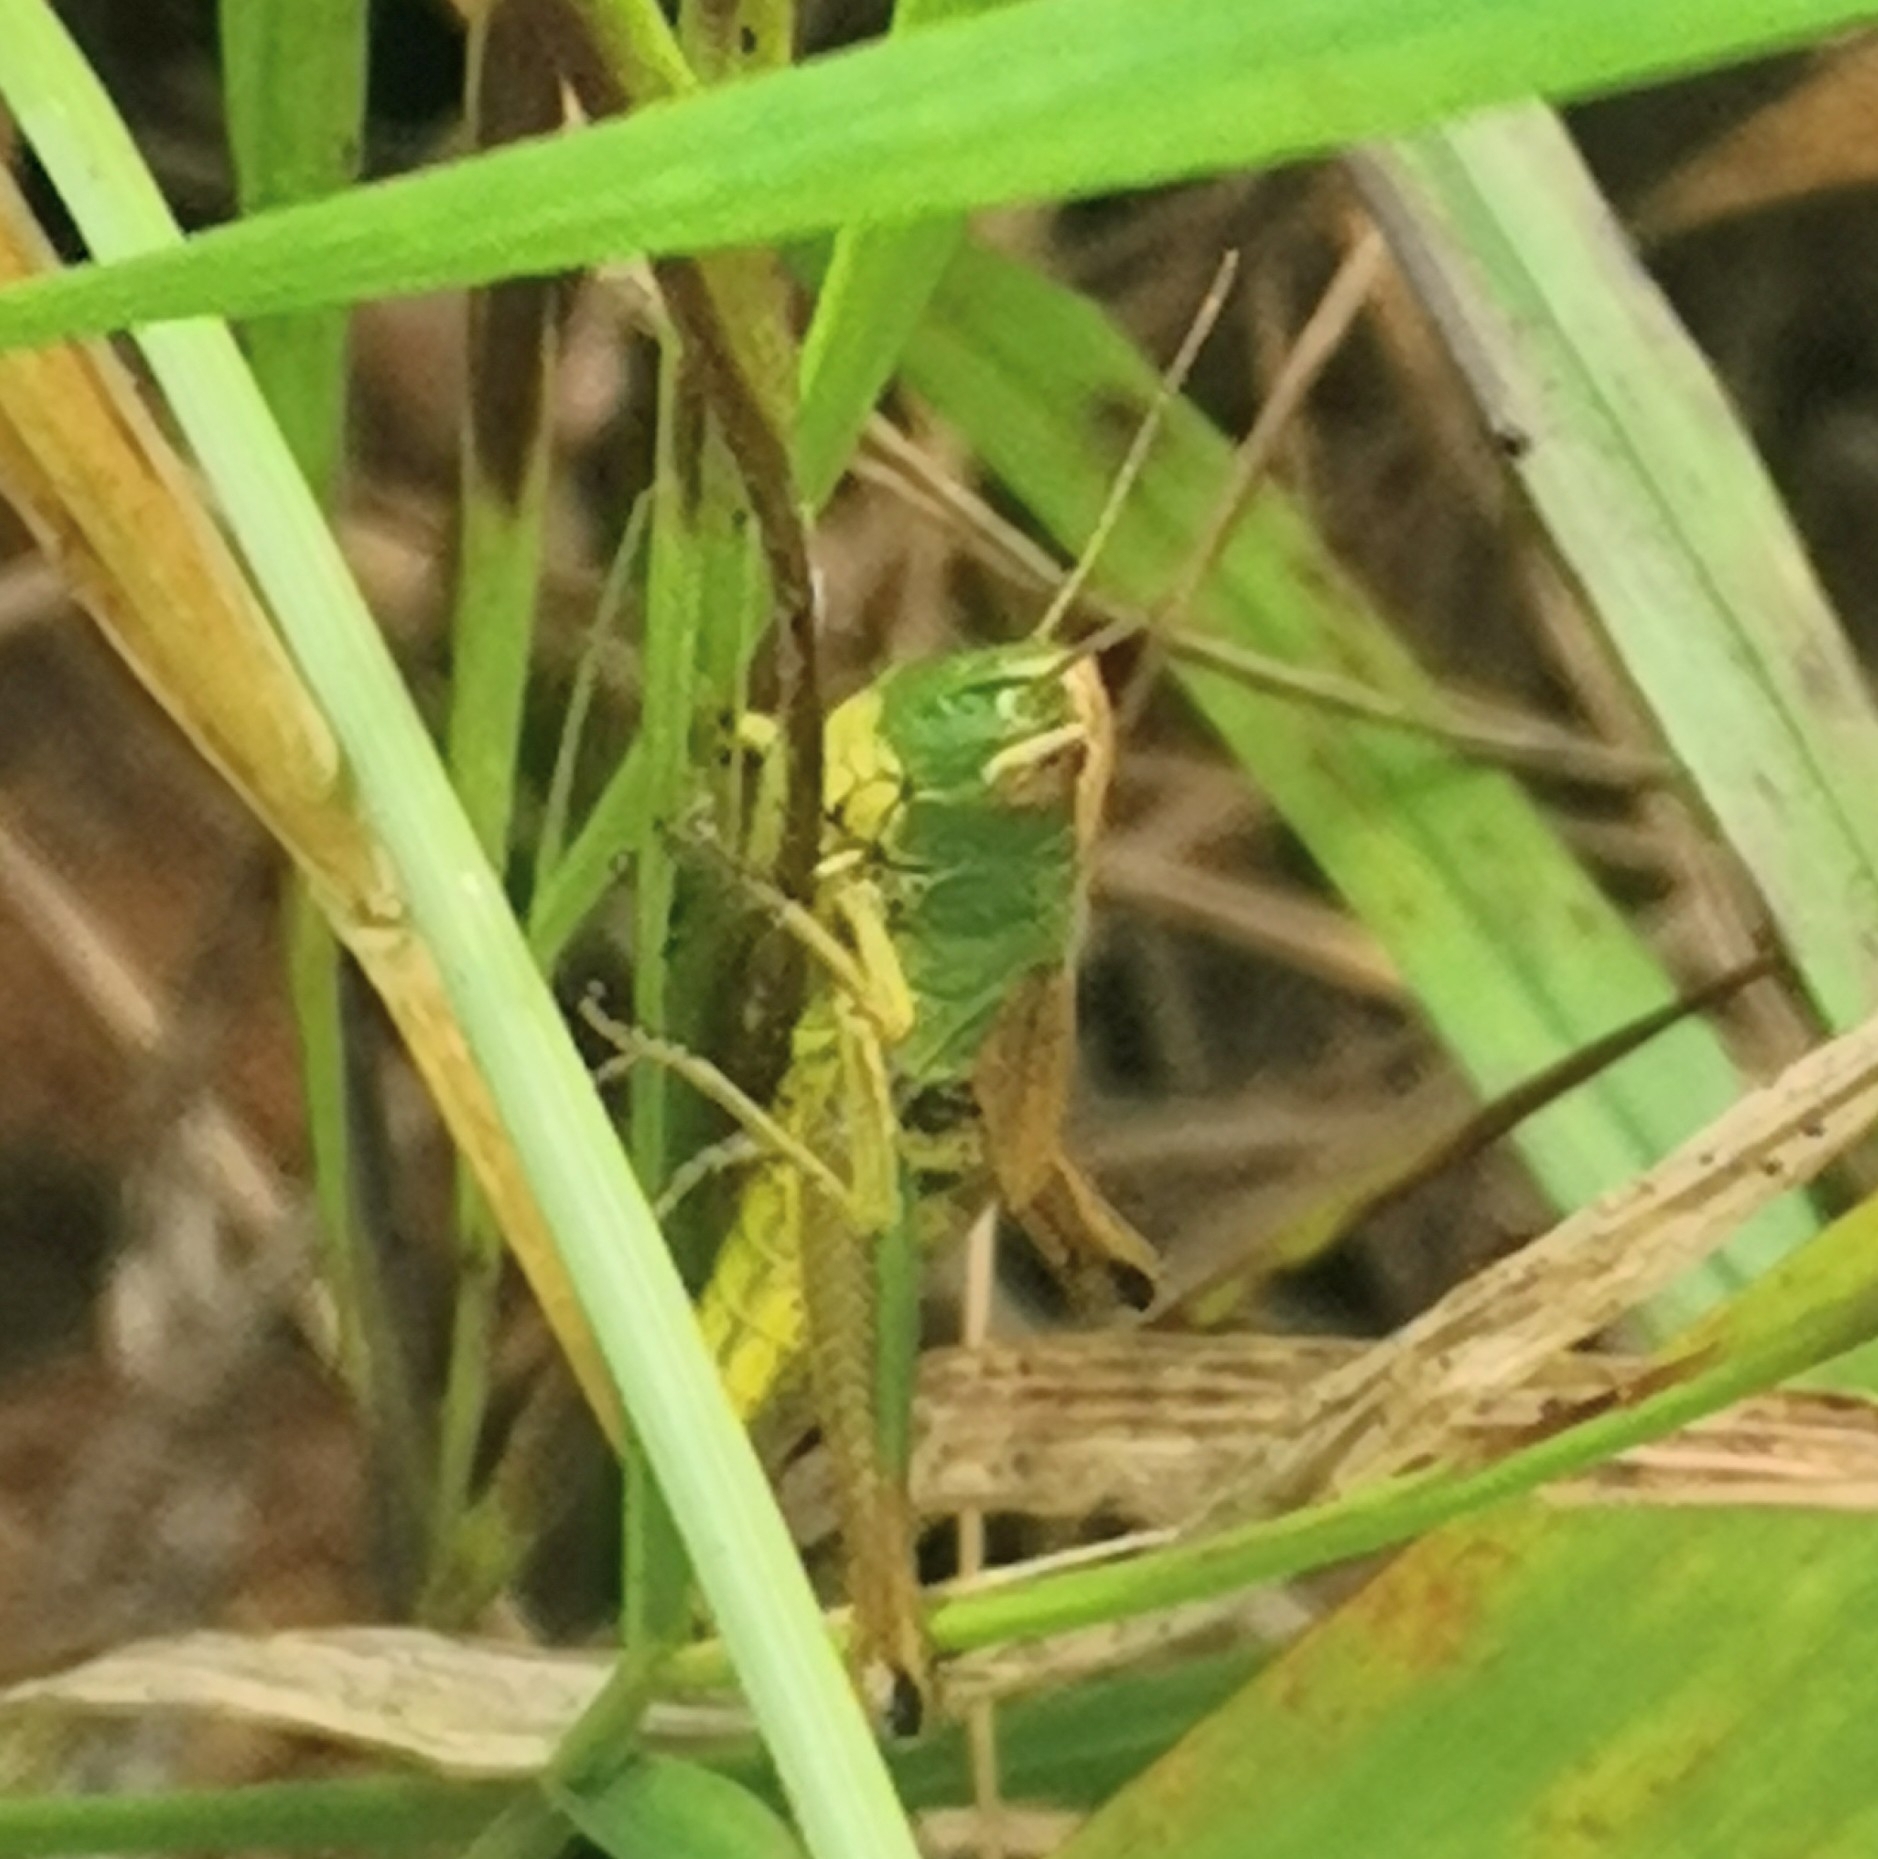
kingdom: Animalia
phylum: Arthropoda
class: Insecta
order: Orthoptera
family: Acrididae
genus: Pseudochorthippus
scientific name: Pseudochorthippus parallelus
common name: Meadow grasshopper
